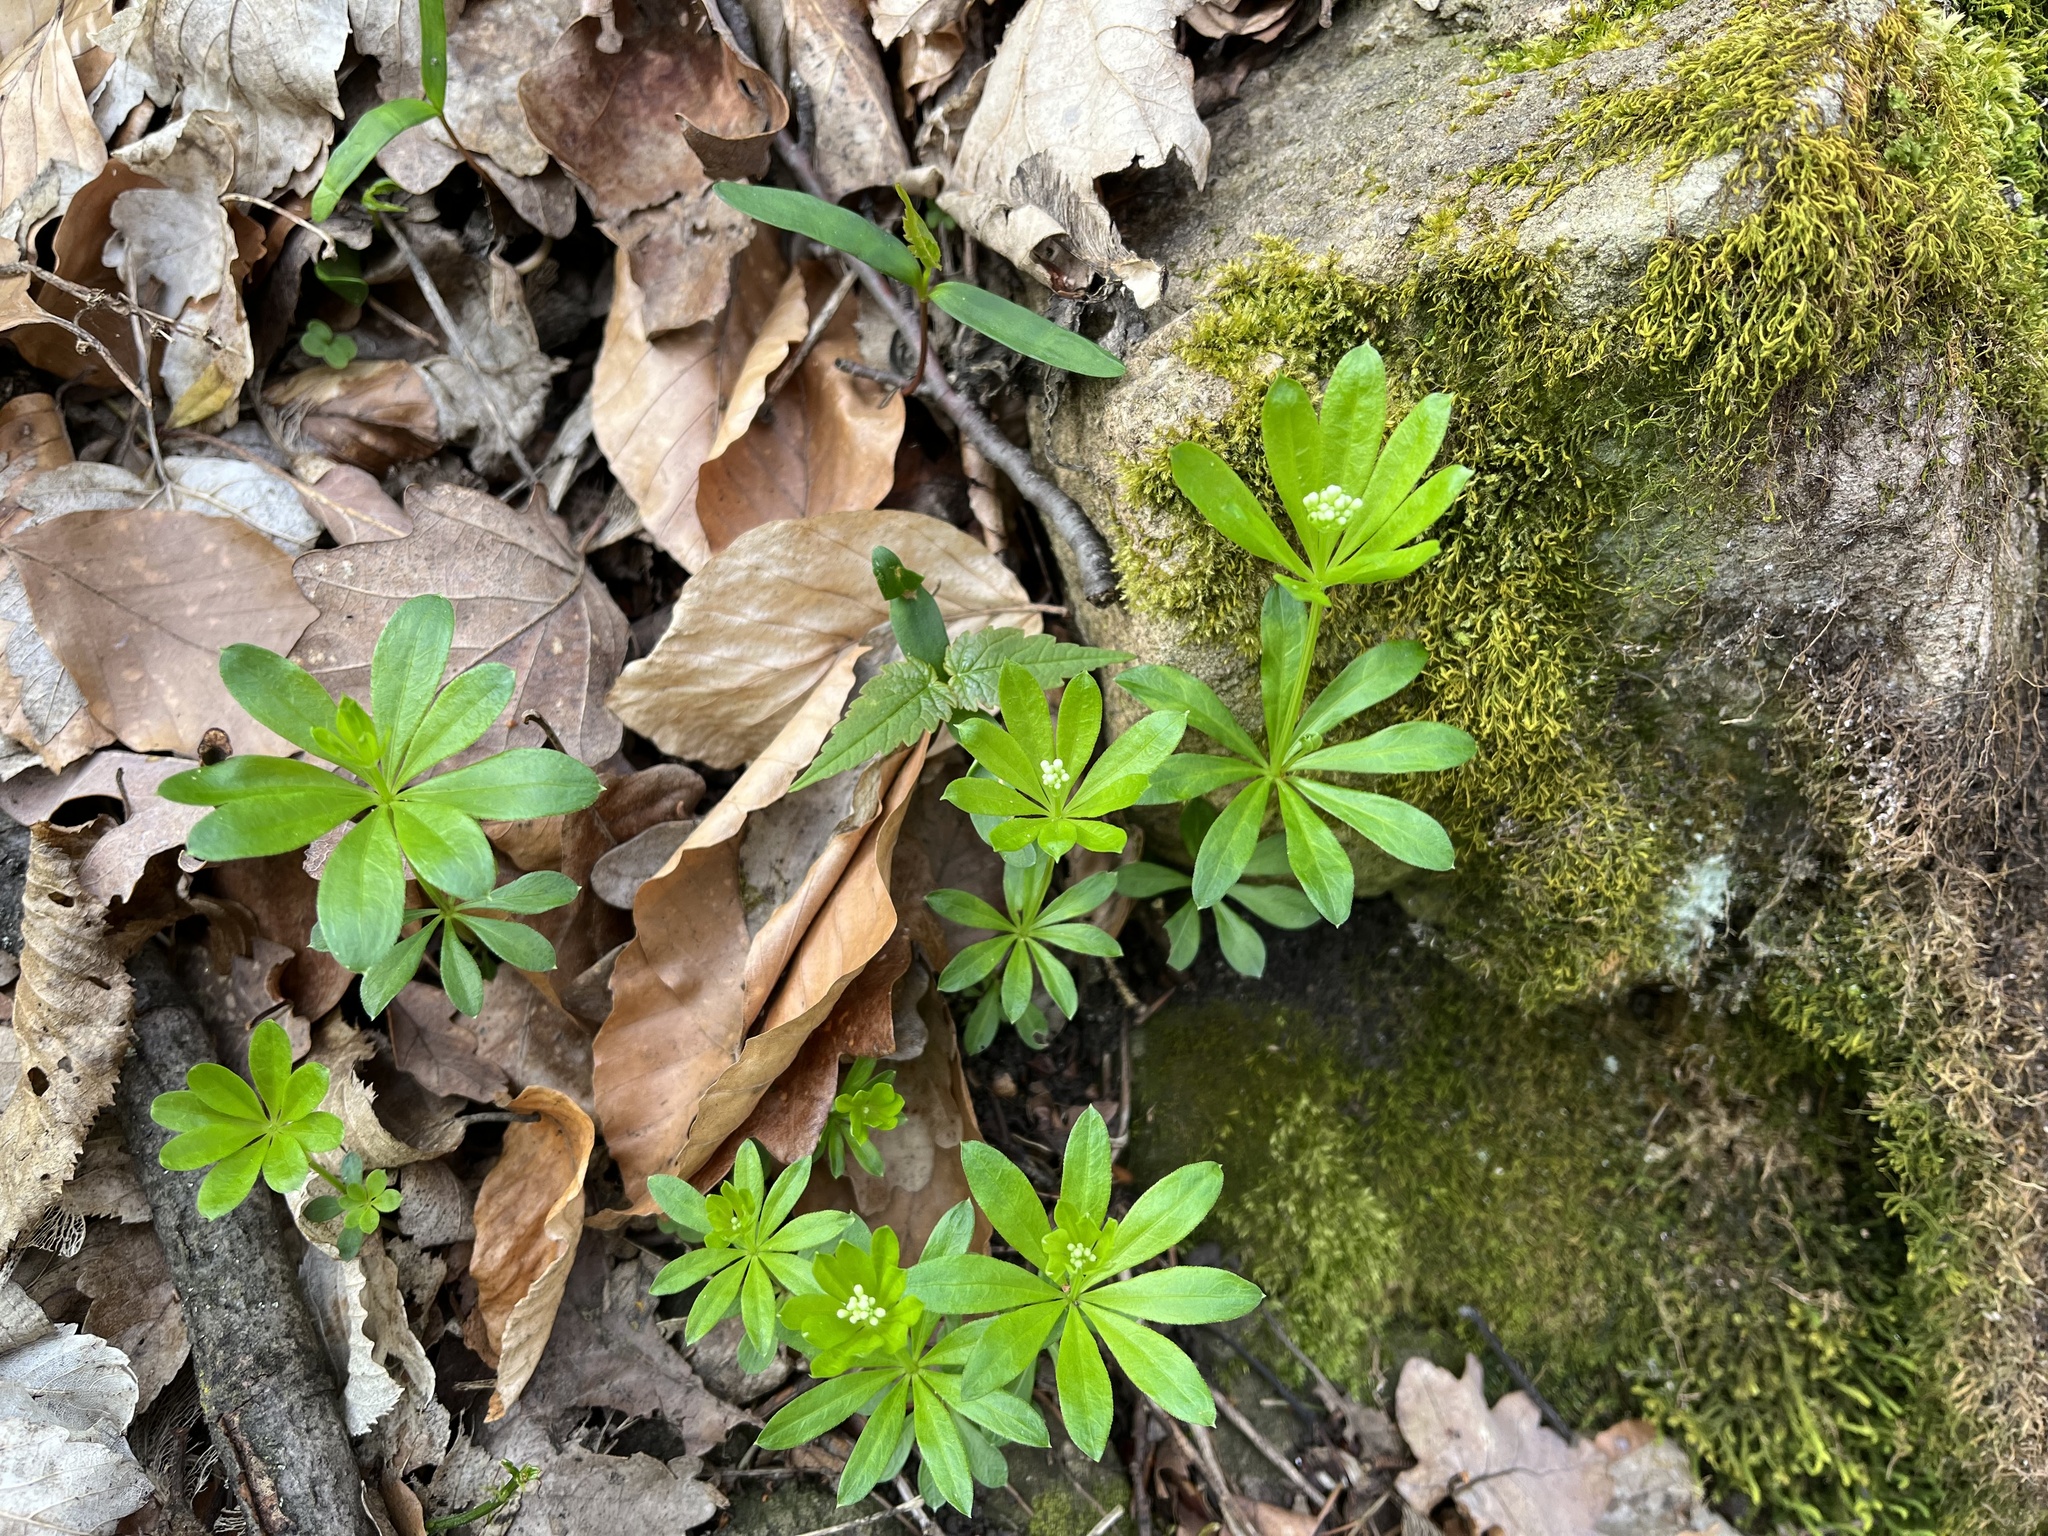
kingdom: Plantae
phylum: Tracheophyta
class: Magnoliopsida
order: Gentianales
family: Rubiaceae
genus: Galium
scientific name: Galium odoratum
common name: Sweet woodruff
